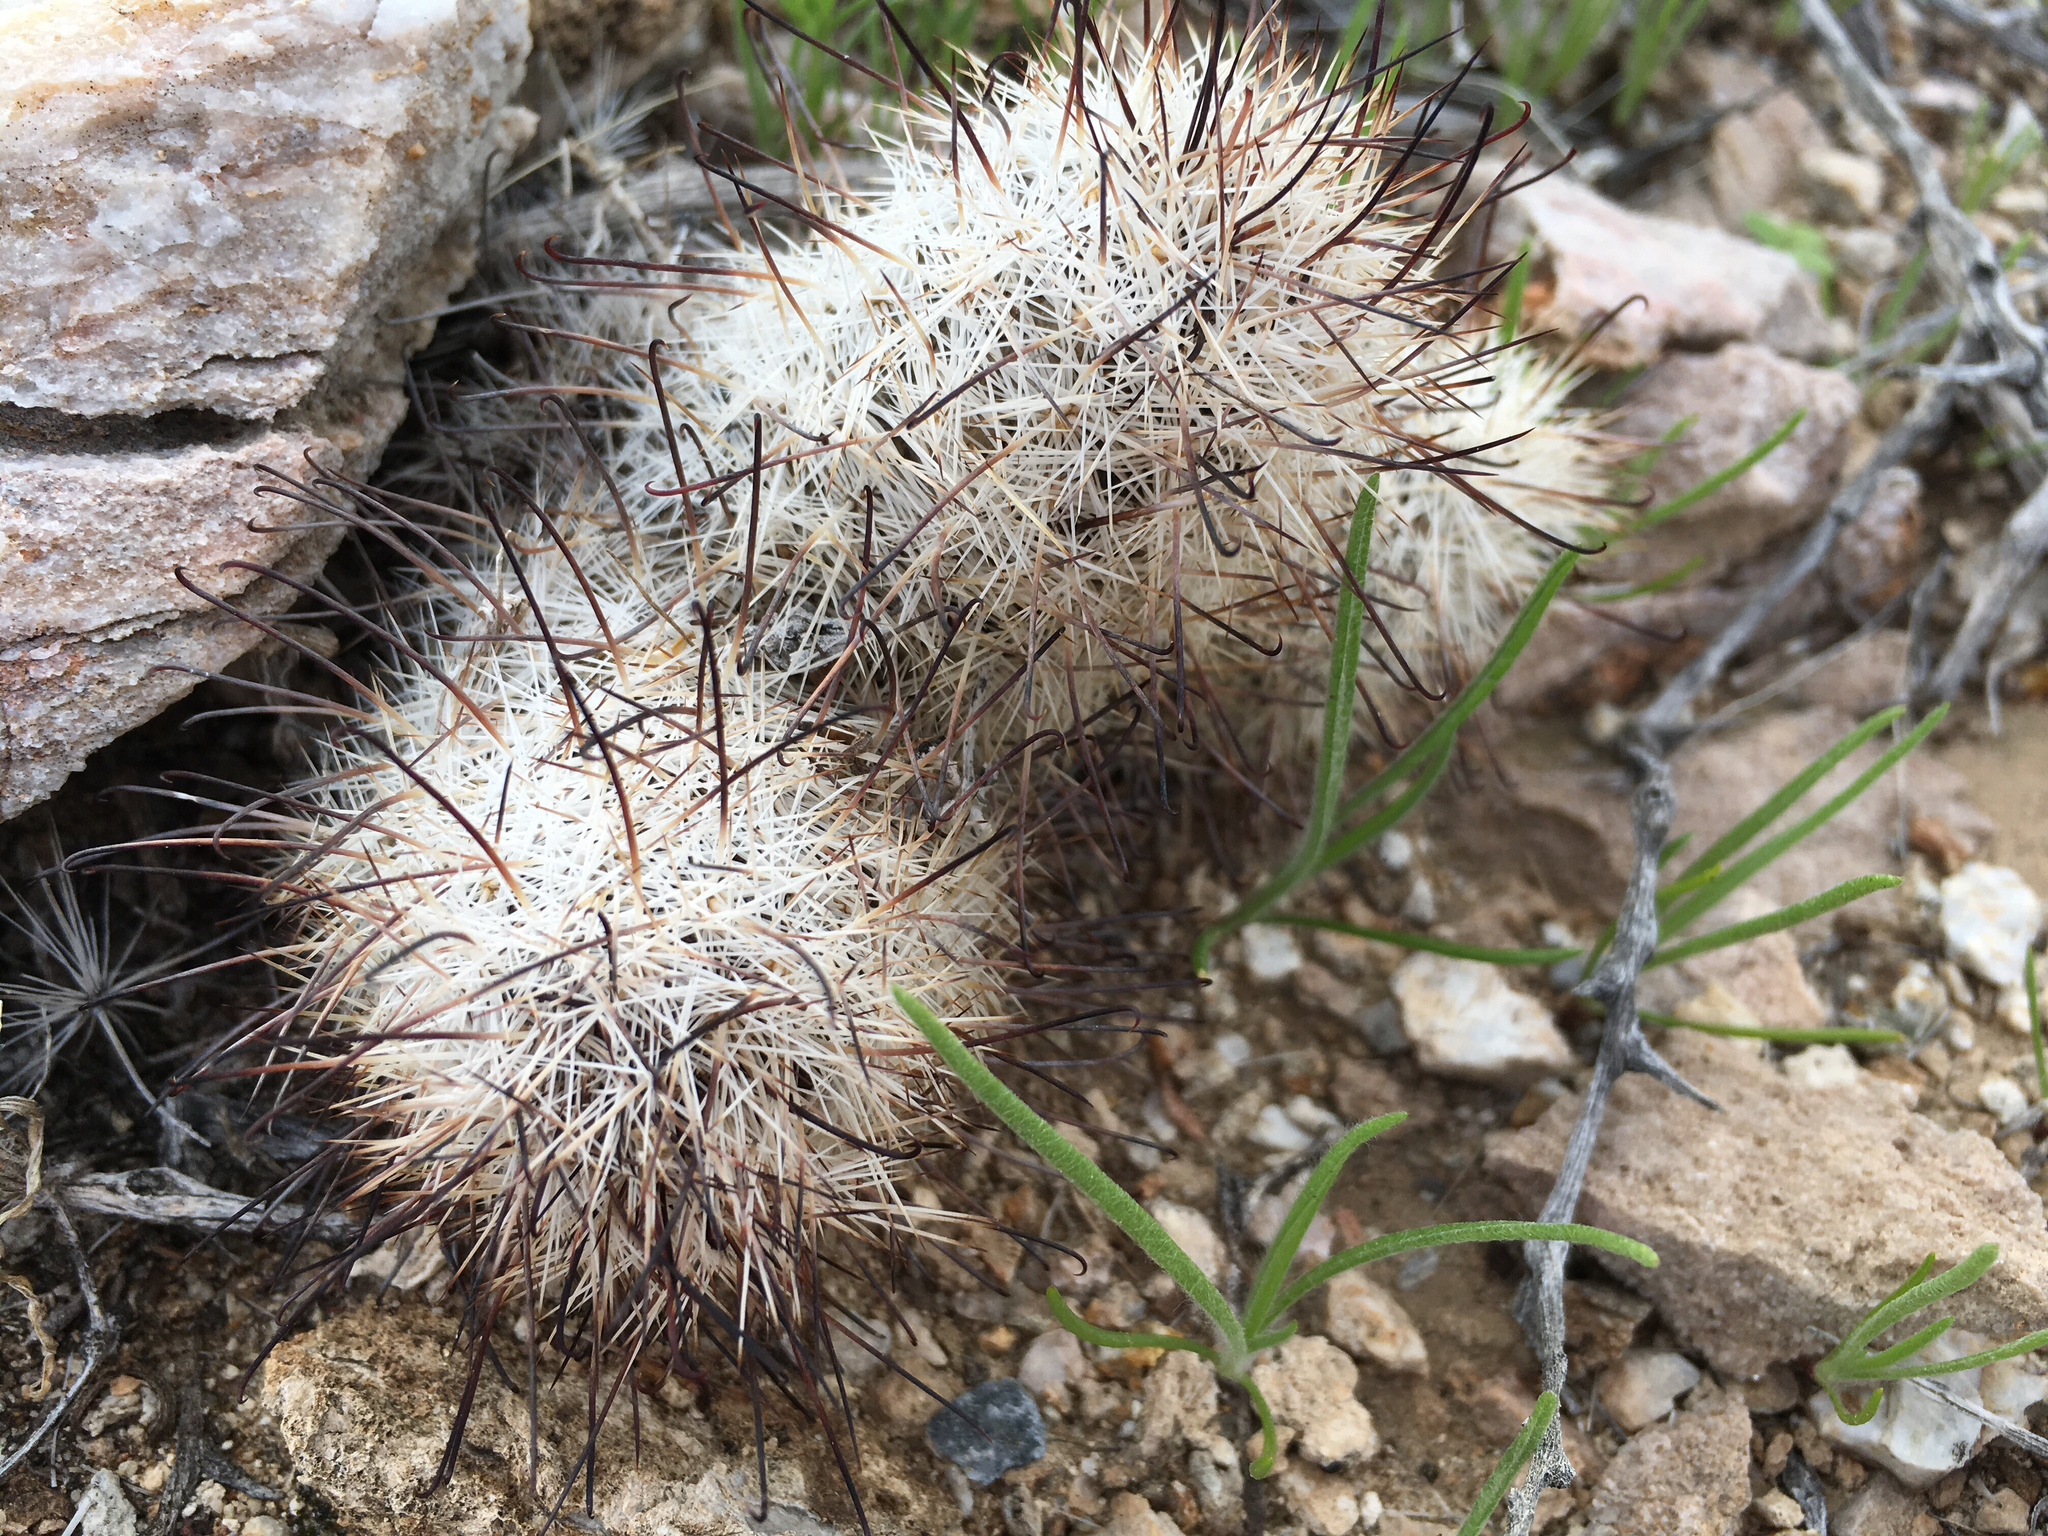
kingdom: Plantae
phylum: Tracheophyta
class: Magnoliopsida
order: Caryophyllales
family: Cactaceae
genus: Cochemiea
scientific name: Cochemiea tetrancistra
